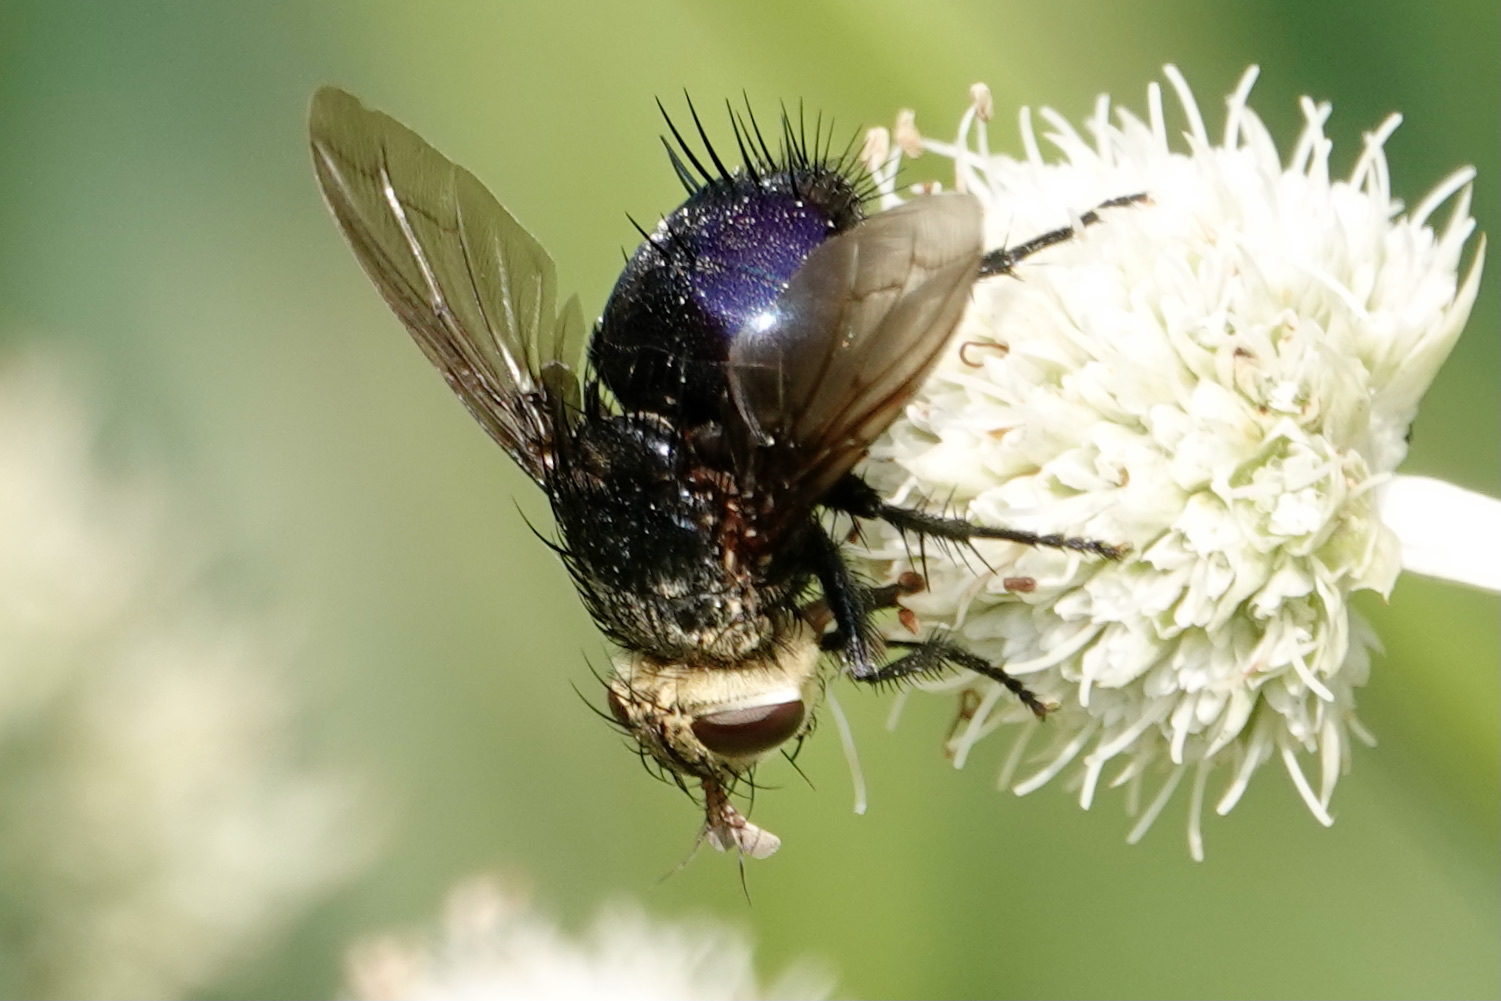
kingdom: Animalia
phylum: Arthropoda
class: Insecta
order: Diptera
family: Tachinidae
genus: Juriniopsis
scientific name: Juriniopsis adusta
